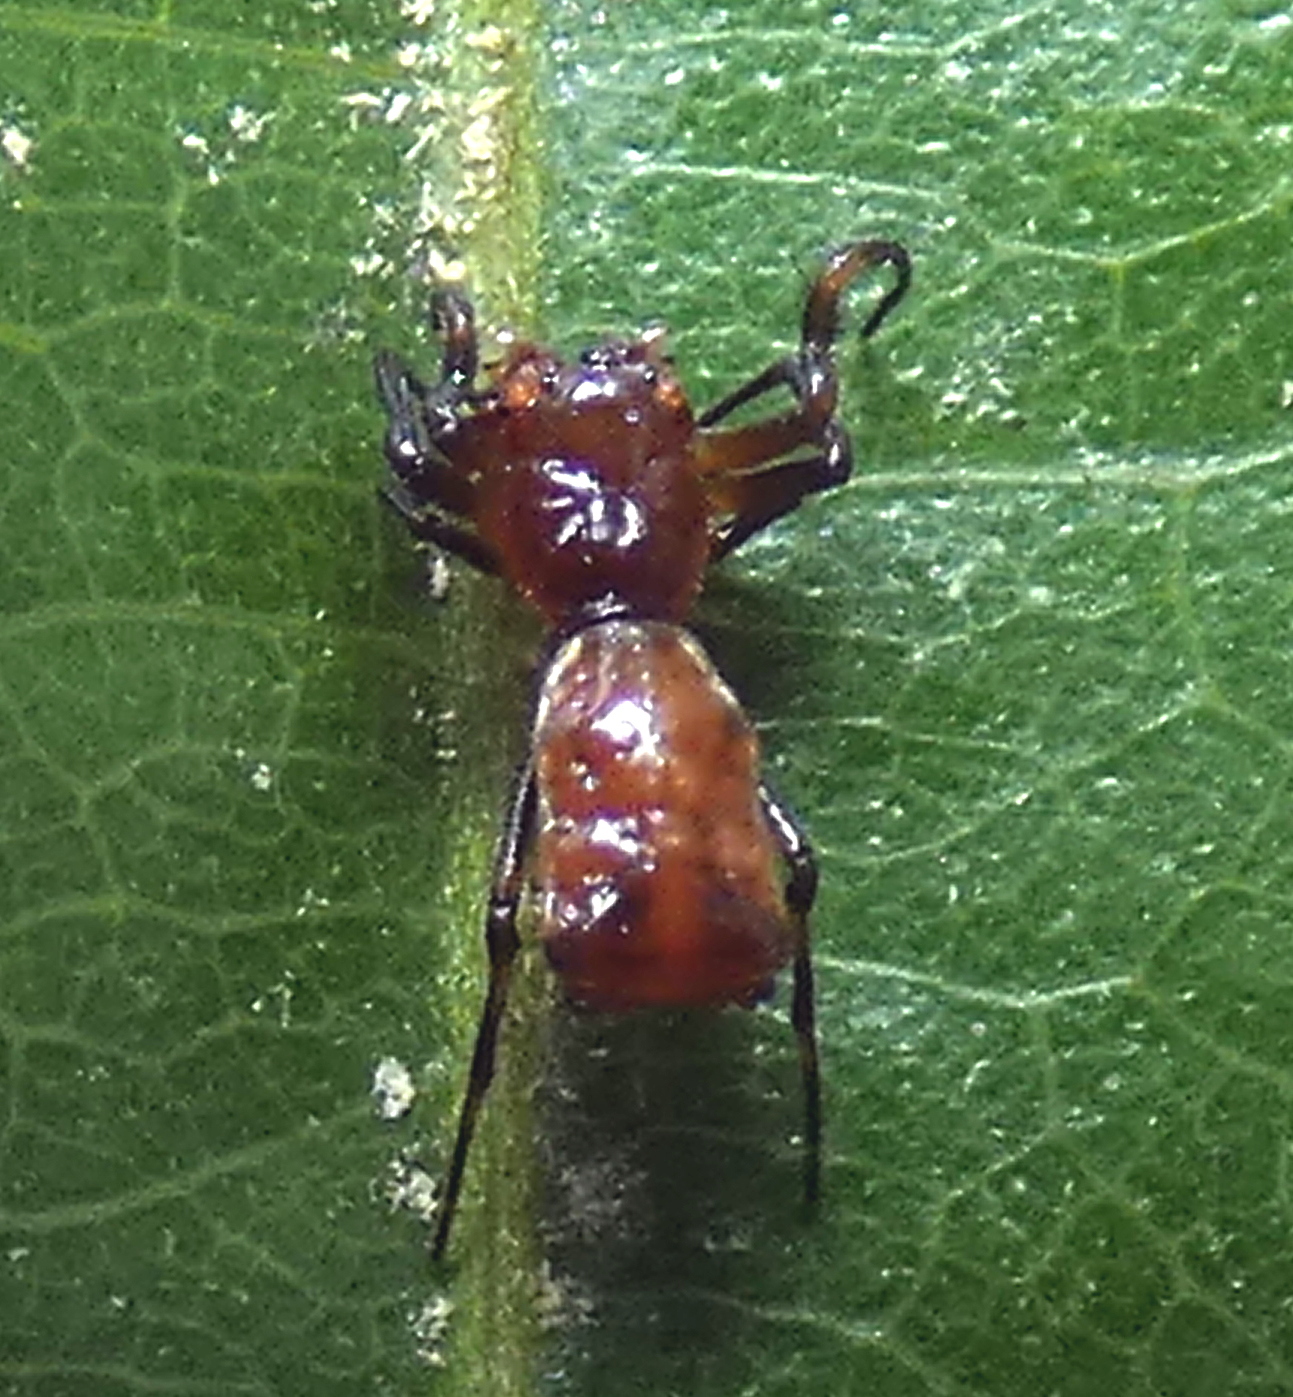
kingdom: Animalia
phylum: Arthropoda
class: Arachnida
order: Araneae
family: Araneidae
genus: Micrathena
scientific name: Micrathena picta
